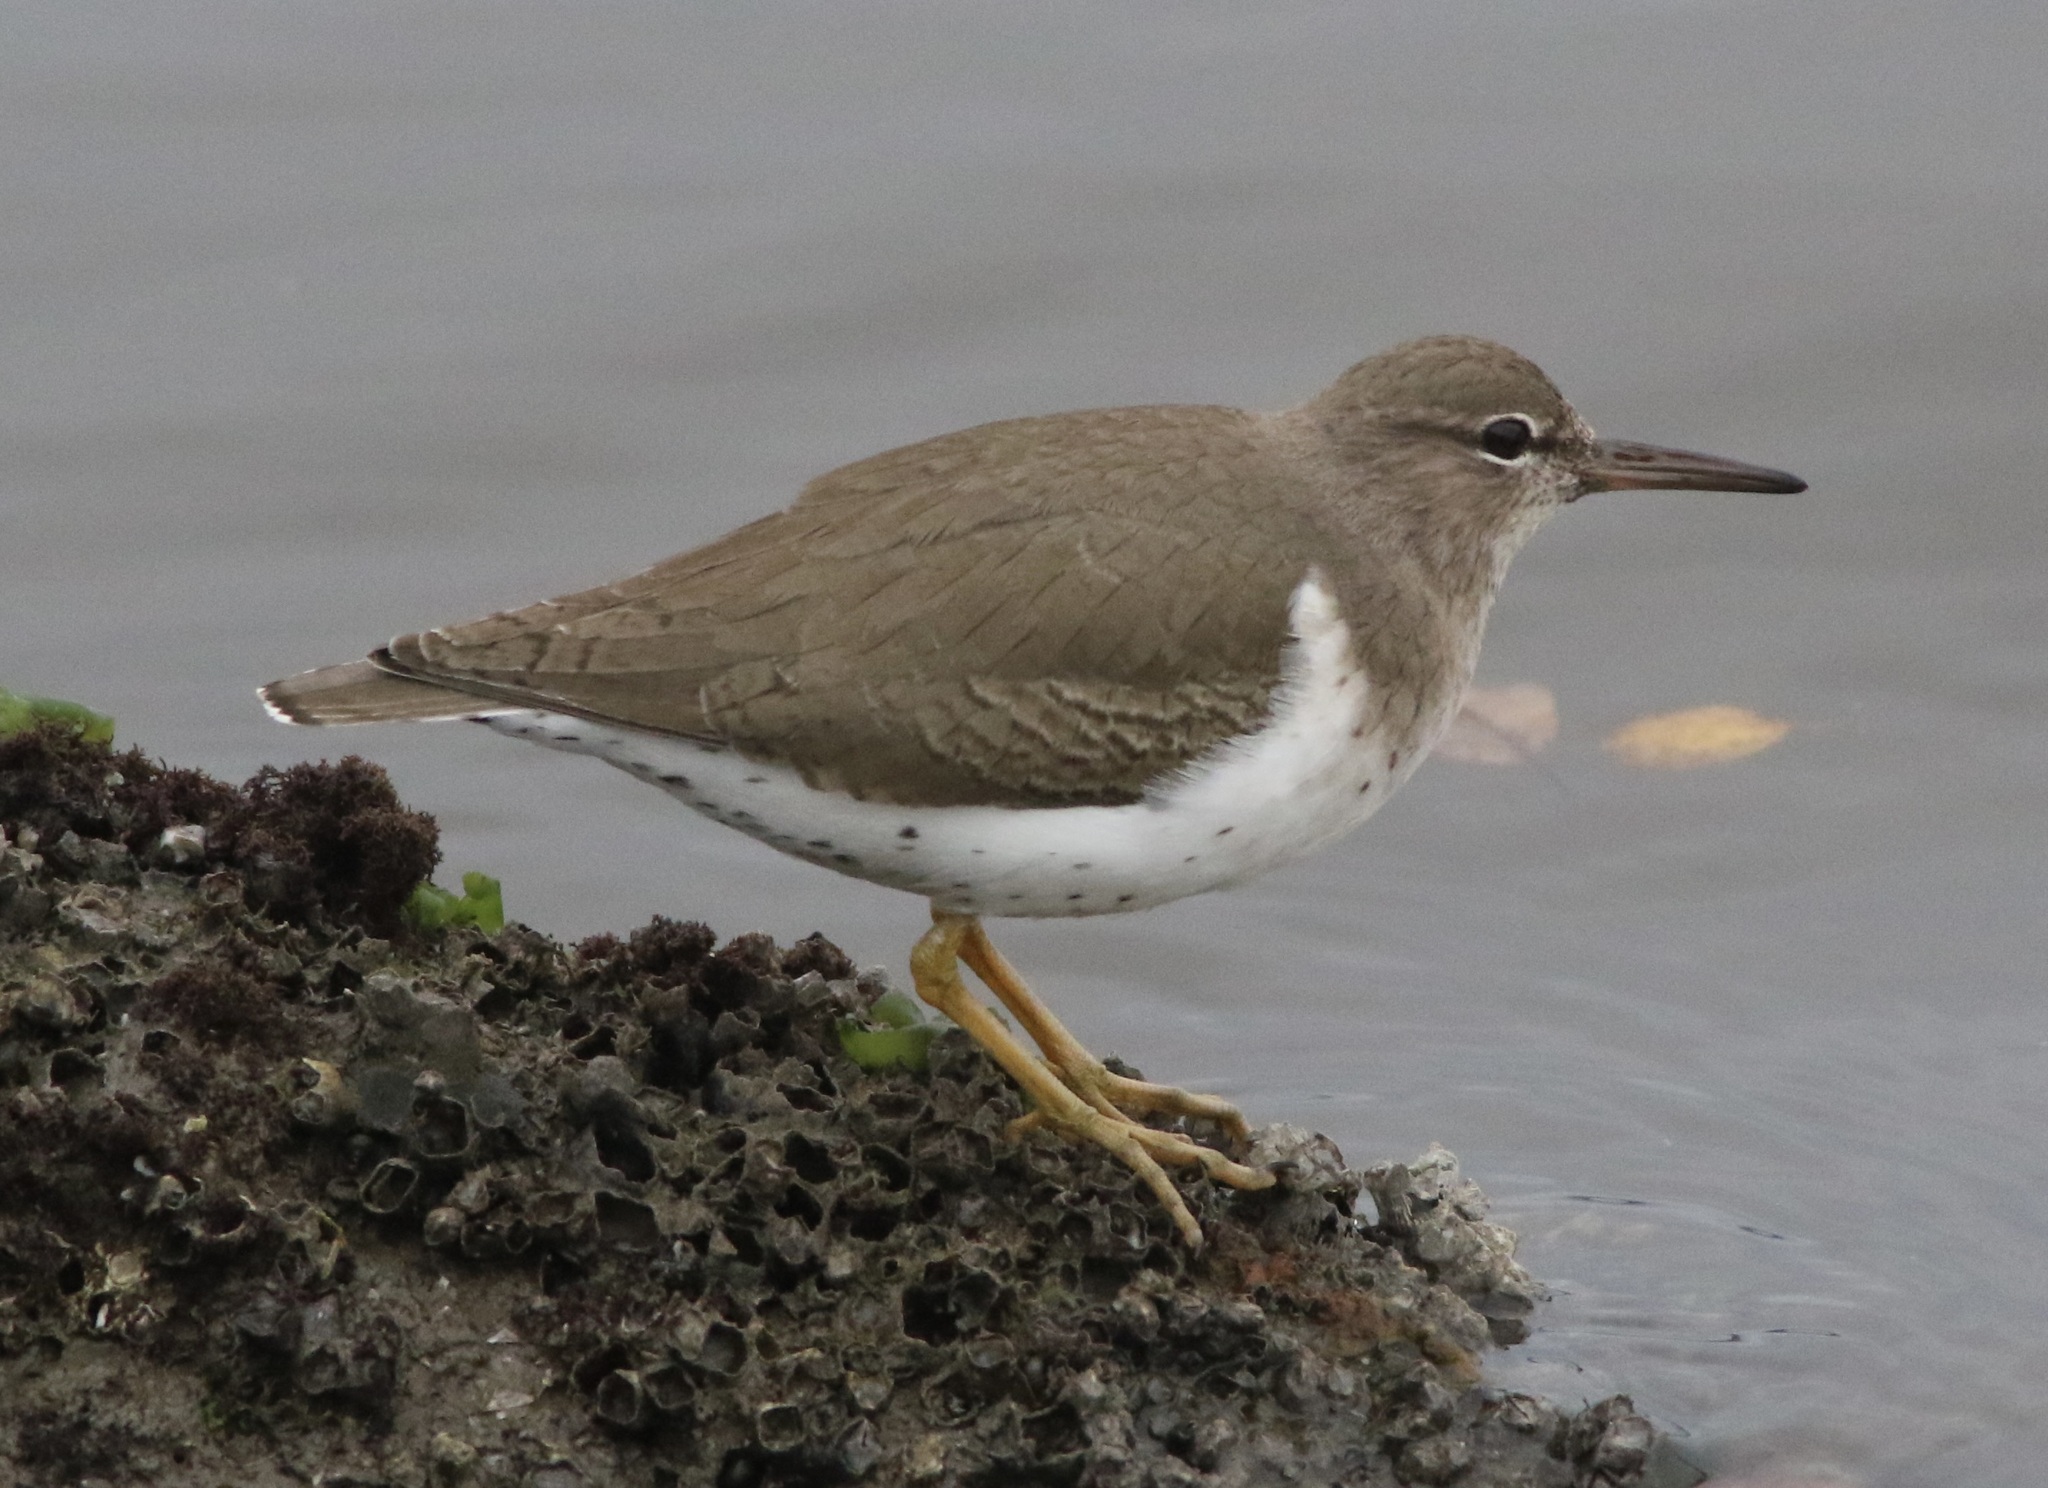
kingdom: Animalia
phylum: Chordata
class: Aves
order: Charadriiformes
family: Scolopacidae
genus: Actitis
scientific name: Actitis macularius
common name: Spotted sandpiper
